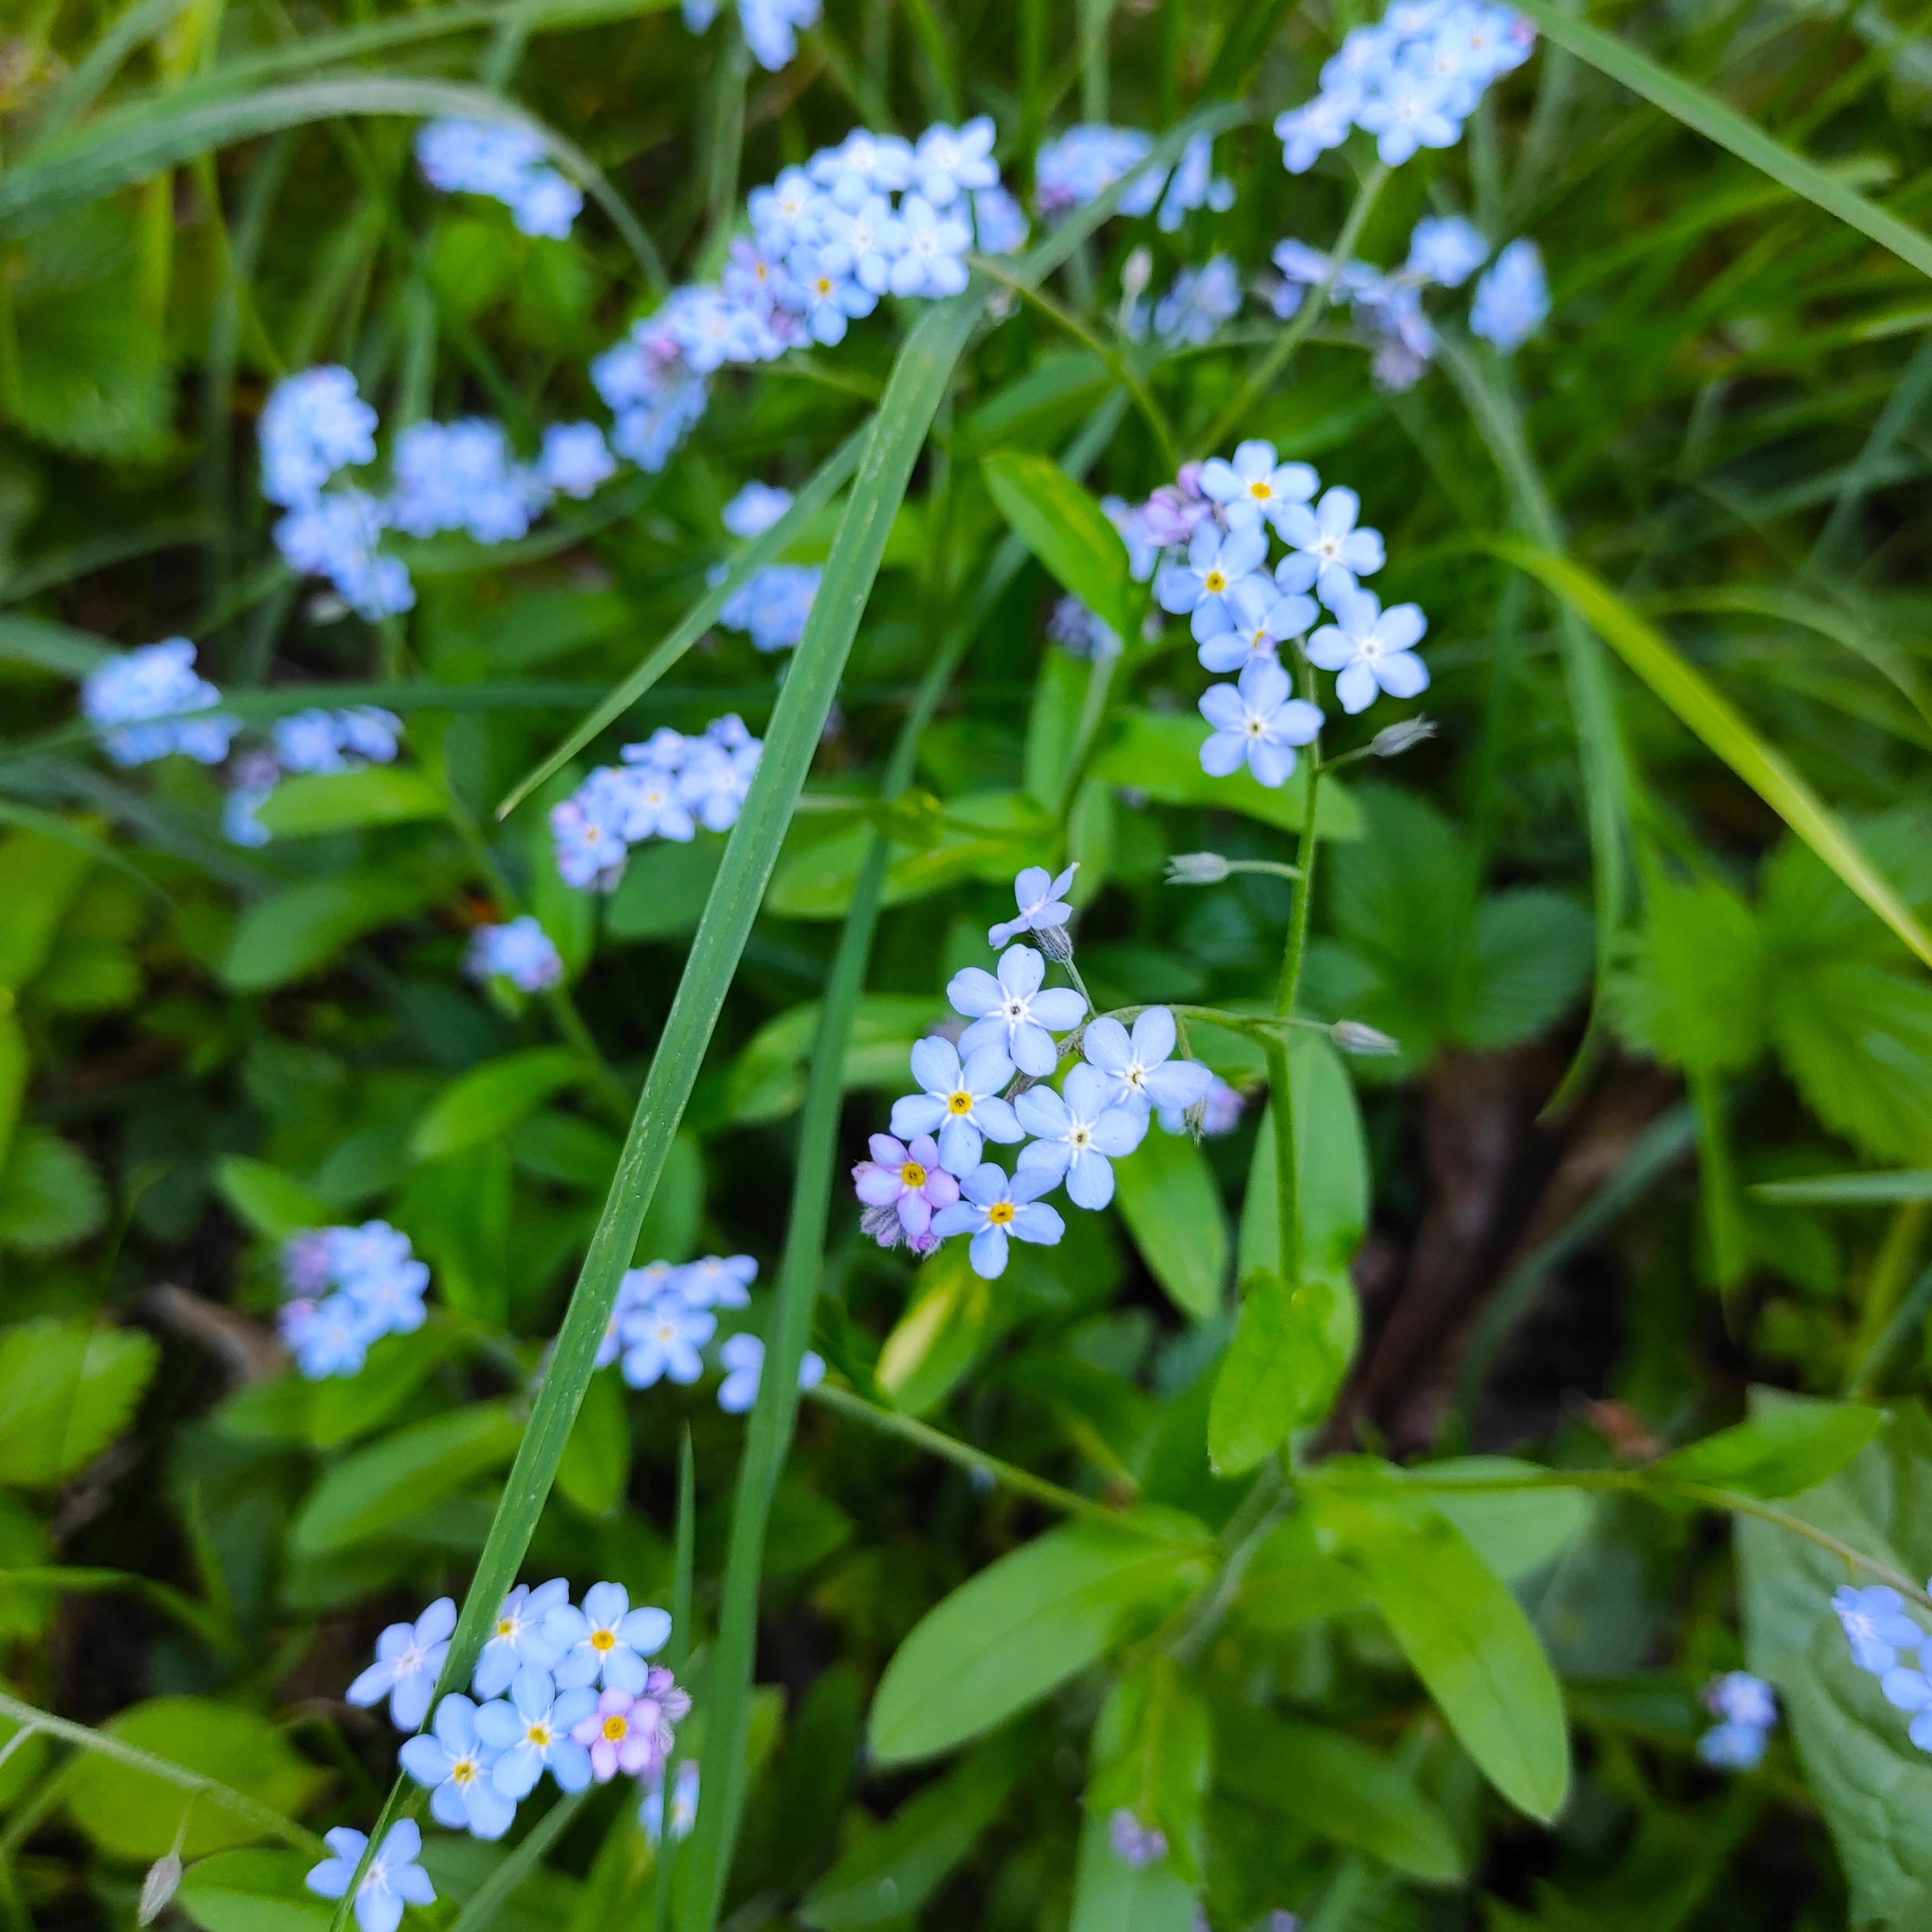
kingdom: Plantae
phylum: Tracheophyta
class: Magnoliopsida
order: Boraginales
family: Boraginaceae
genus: Myosotis
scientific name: Myosotis sylvatica
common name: Wood forget-me-not
